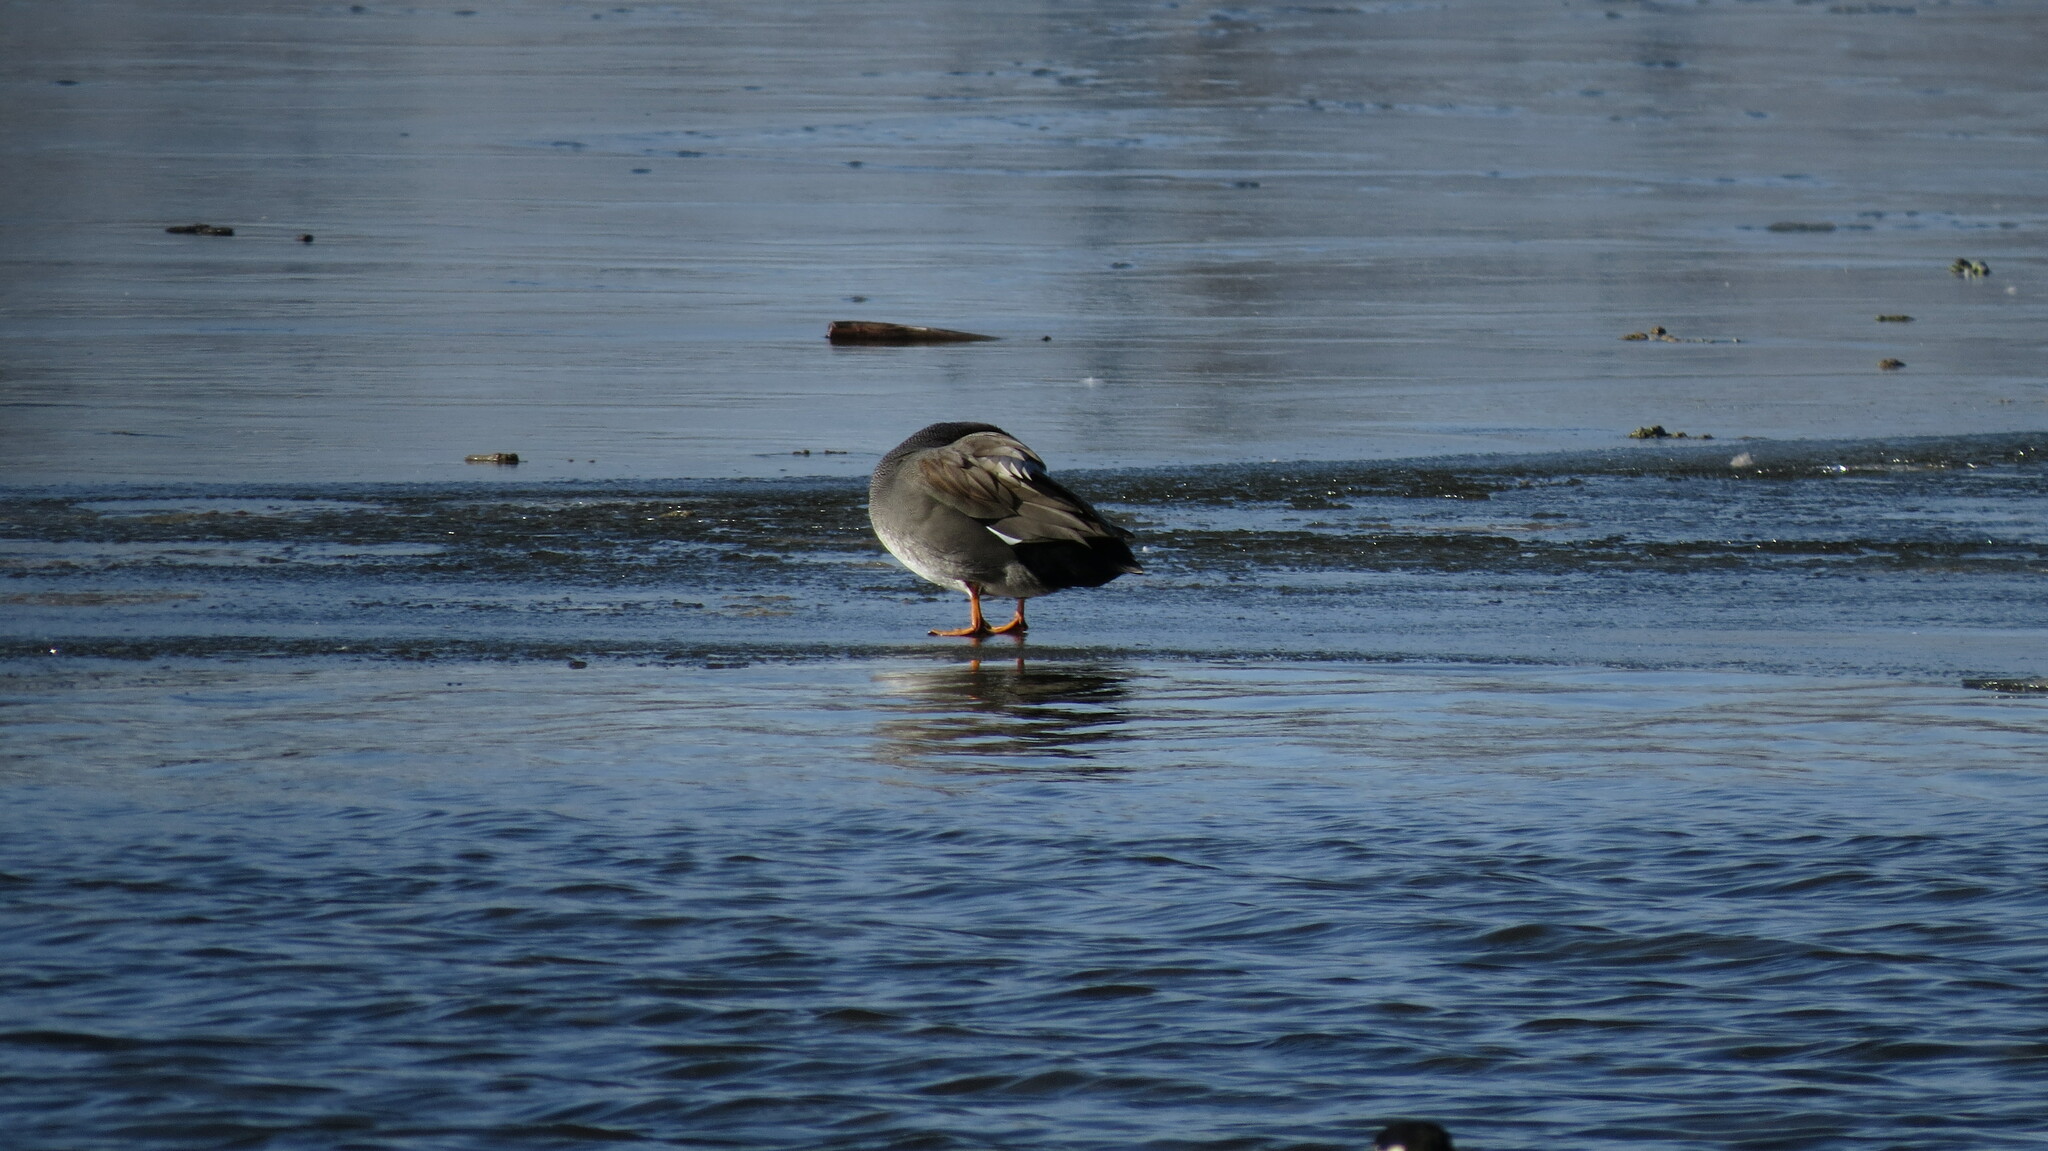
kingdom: Animalia
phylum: Chordata
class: Aves
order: Anseriformes
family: Anatidae
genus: Mareca
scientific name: Mareca strepera
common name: Gadwall
